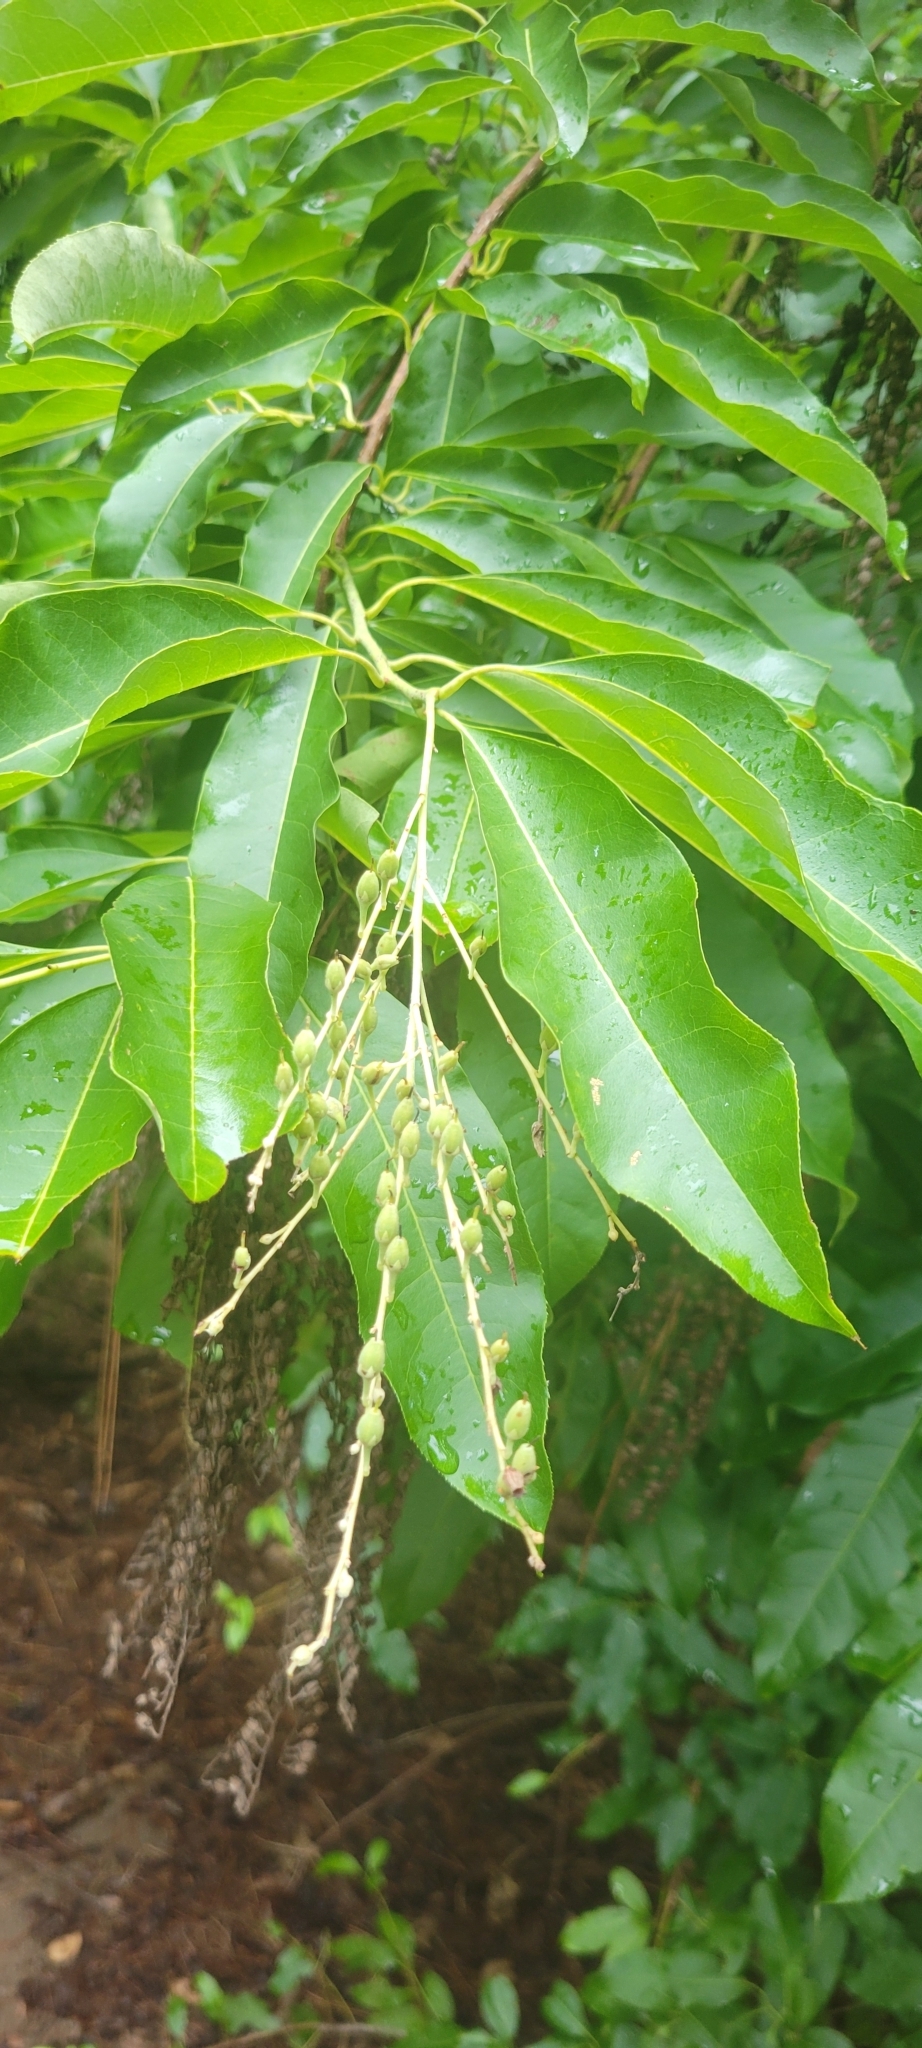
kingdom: Plantae
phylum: Tracheophyta
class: Magnoliopsida
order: Ericales
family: Ericaceae
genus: Oxydendrum
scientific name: Oxydendrum arboreum
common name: Sourwood
